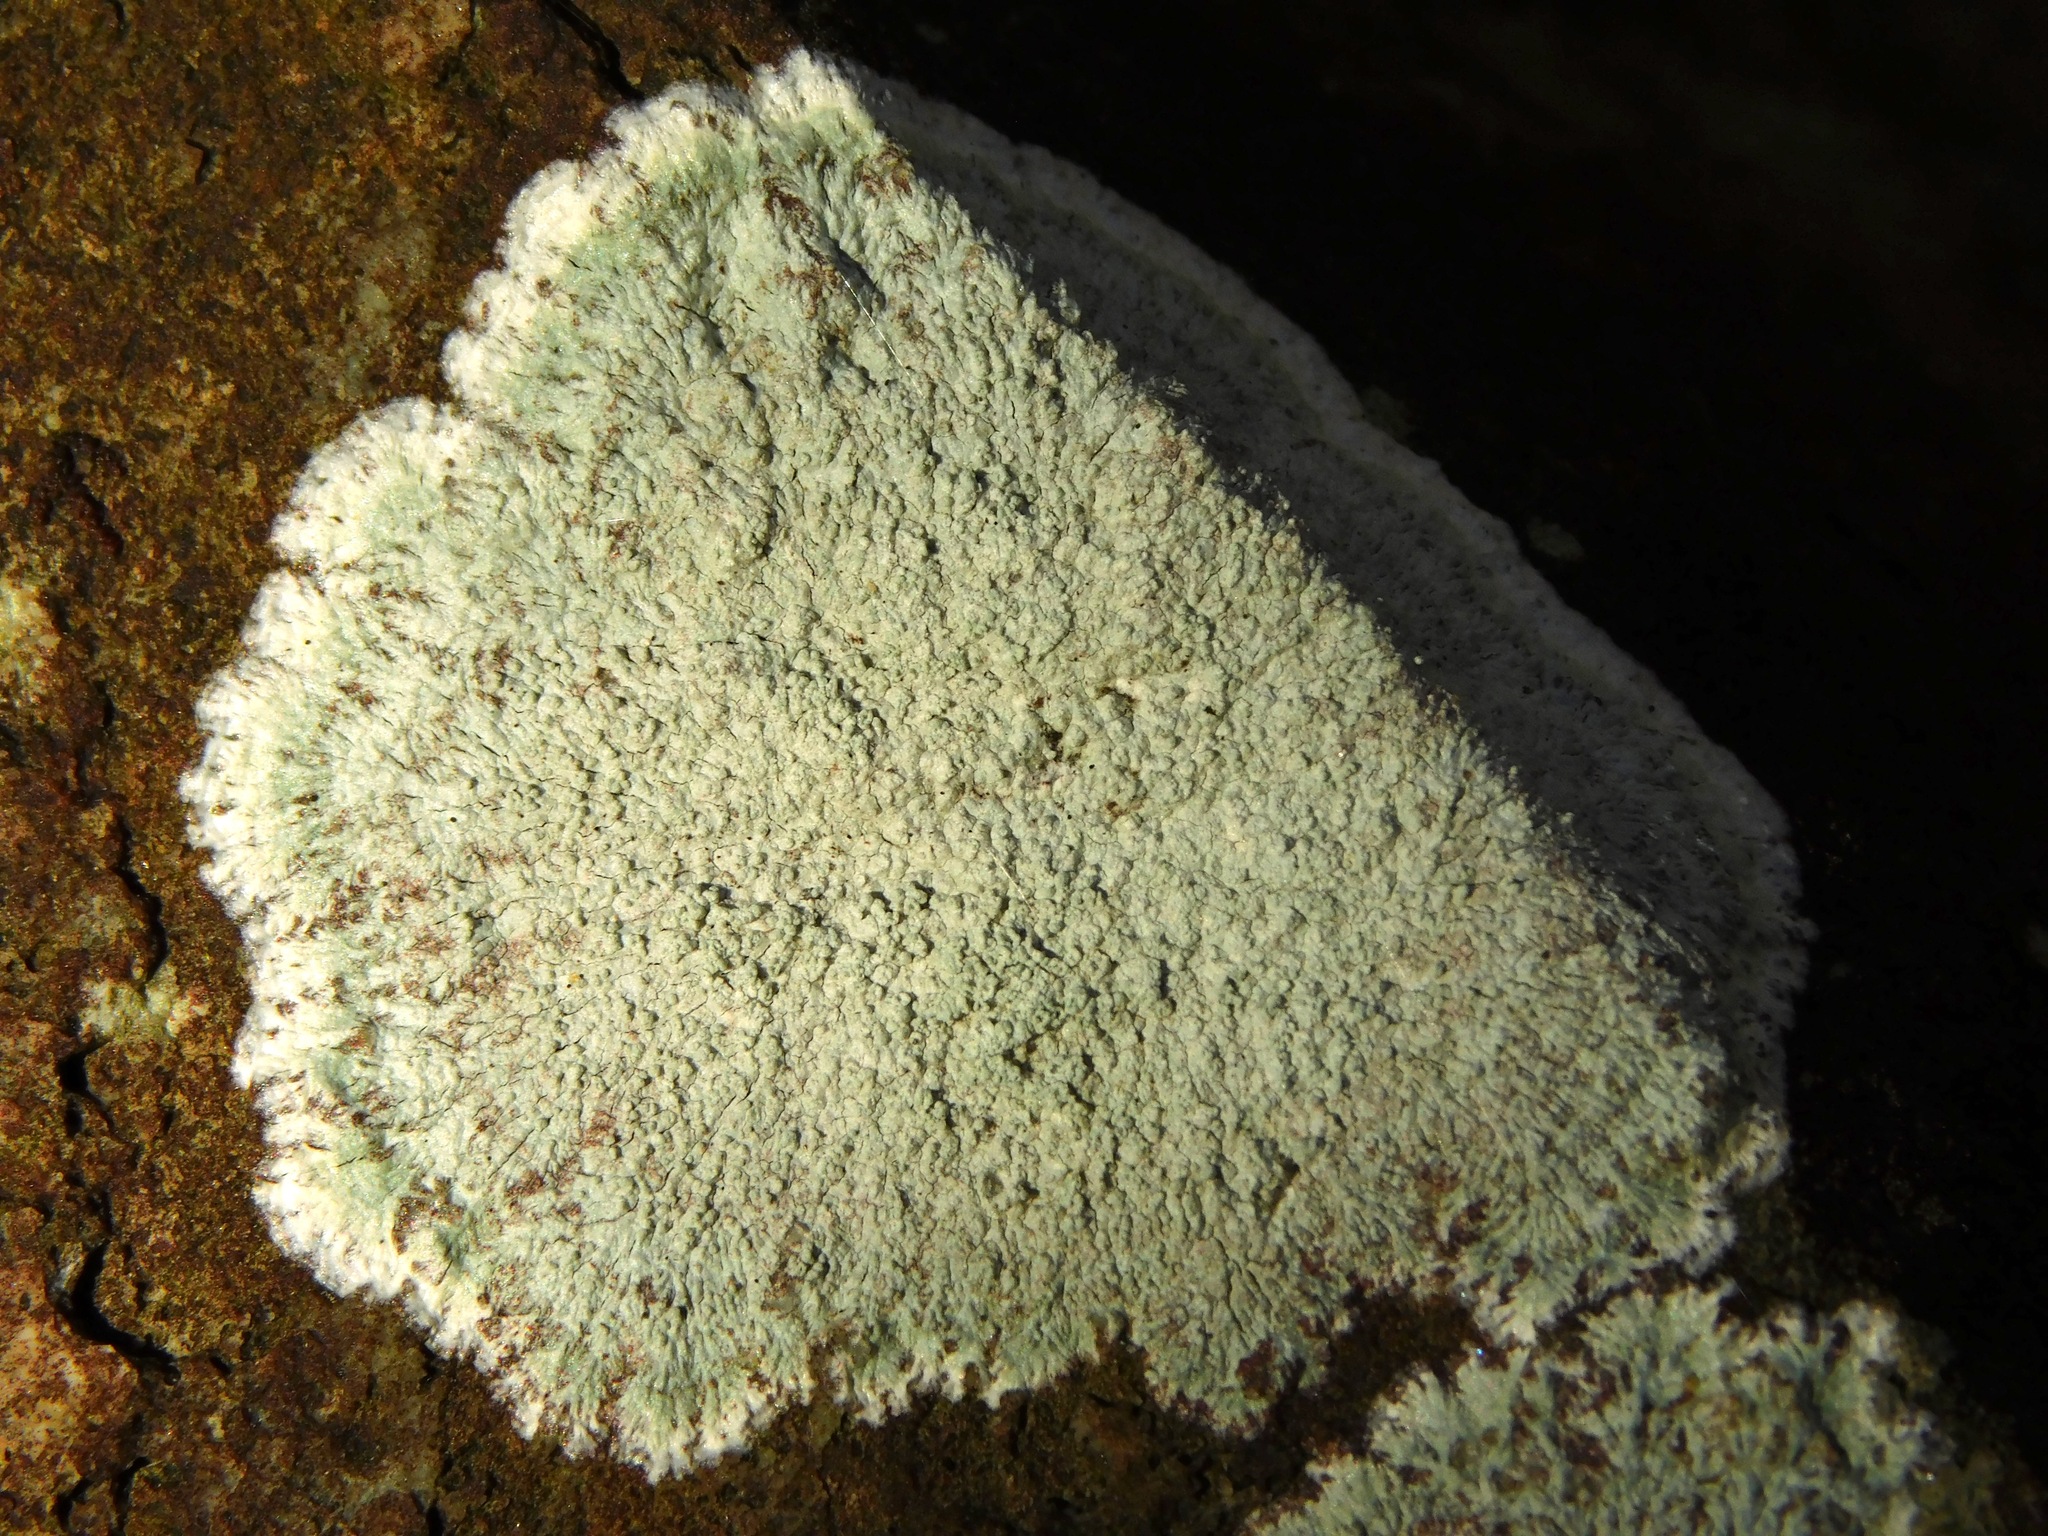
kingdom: Fungi
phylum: Ascomycota
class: Lecanoromycetes
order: Pertusariales
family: Pertusariaceae
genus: Lepra
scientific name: Lepra excludens
